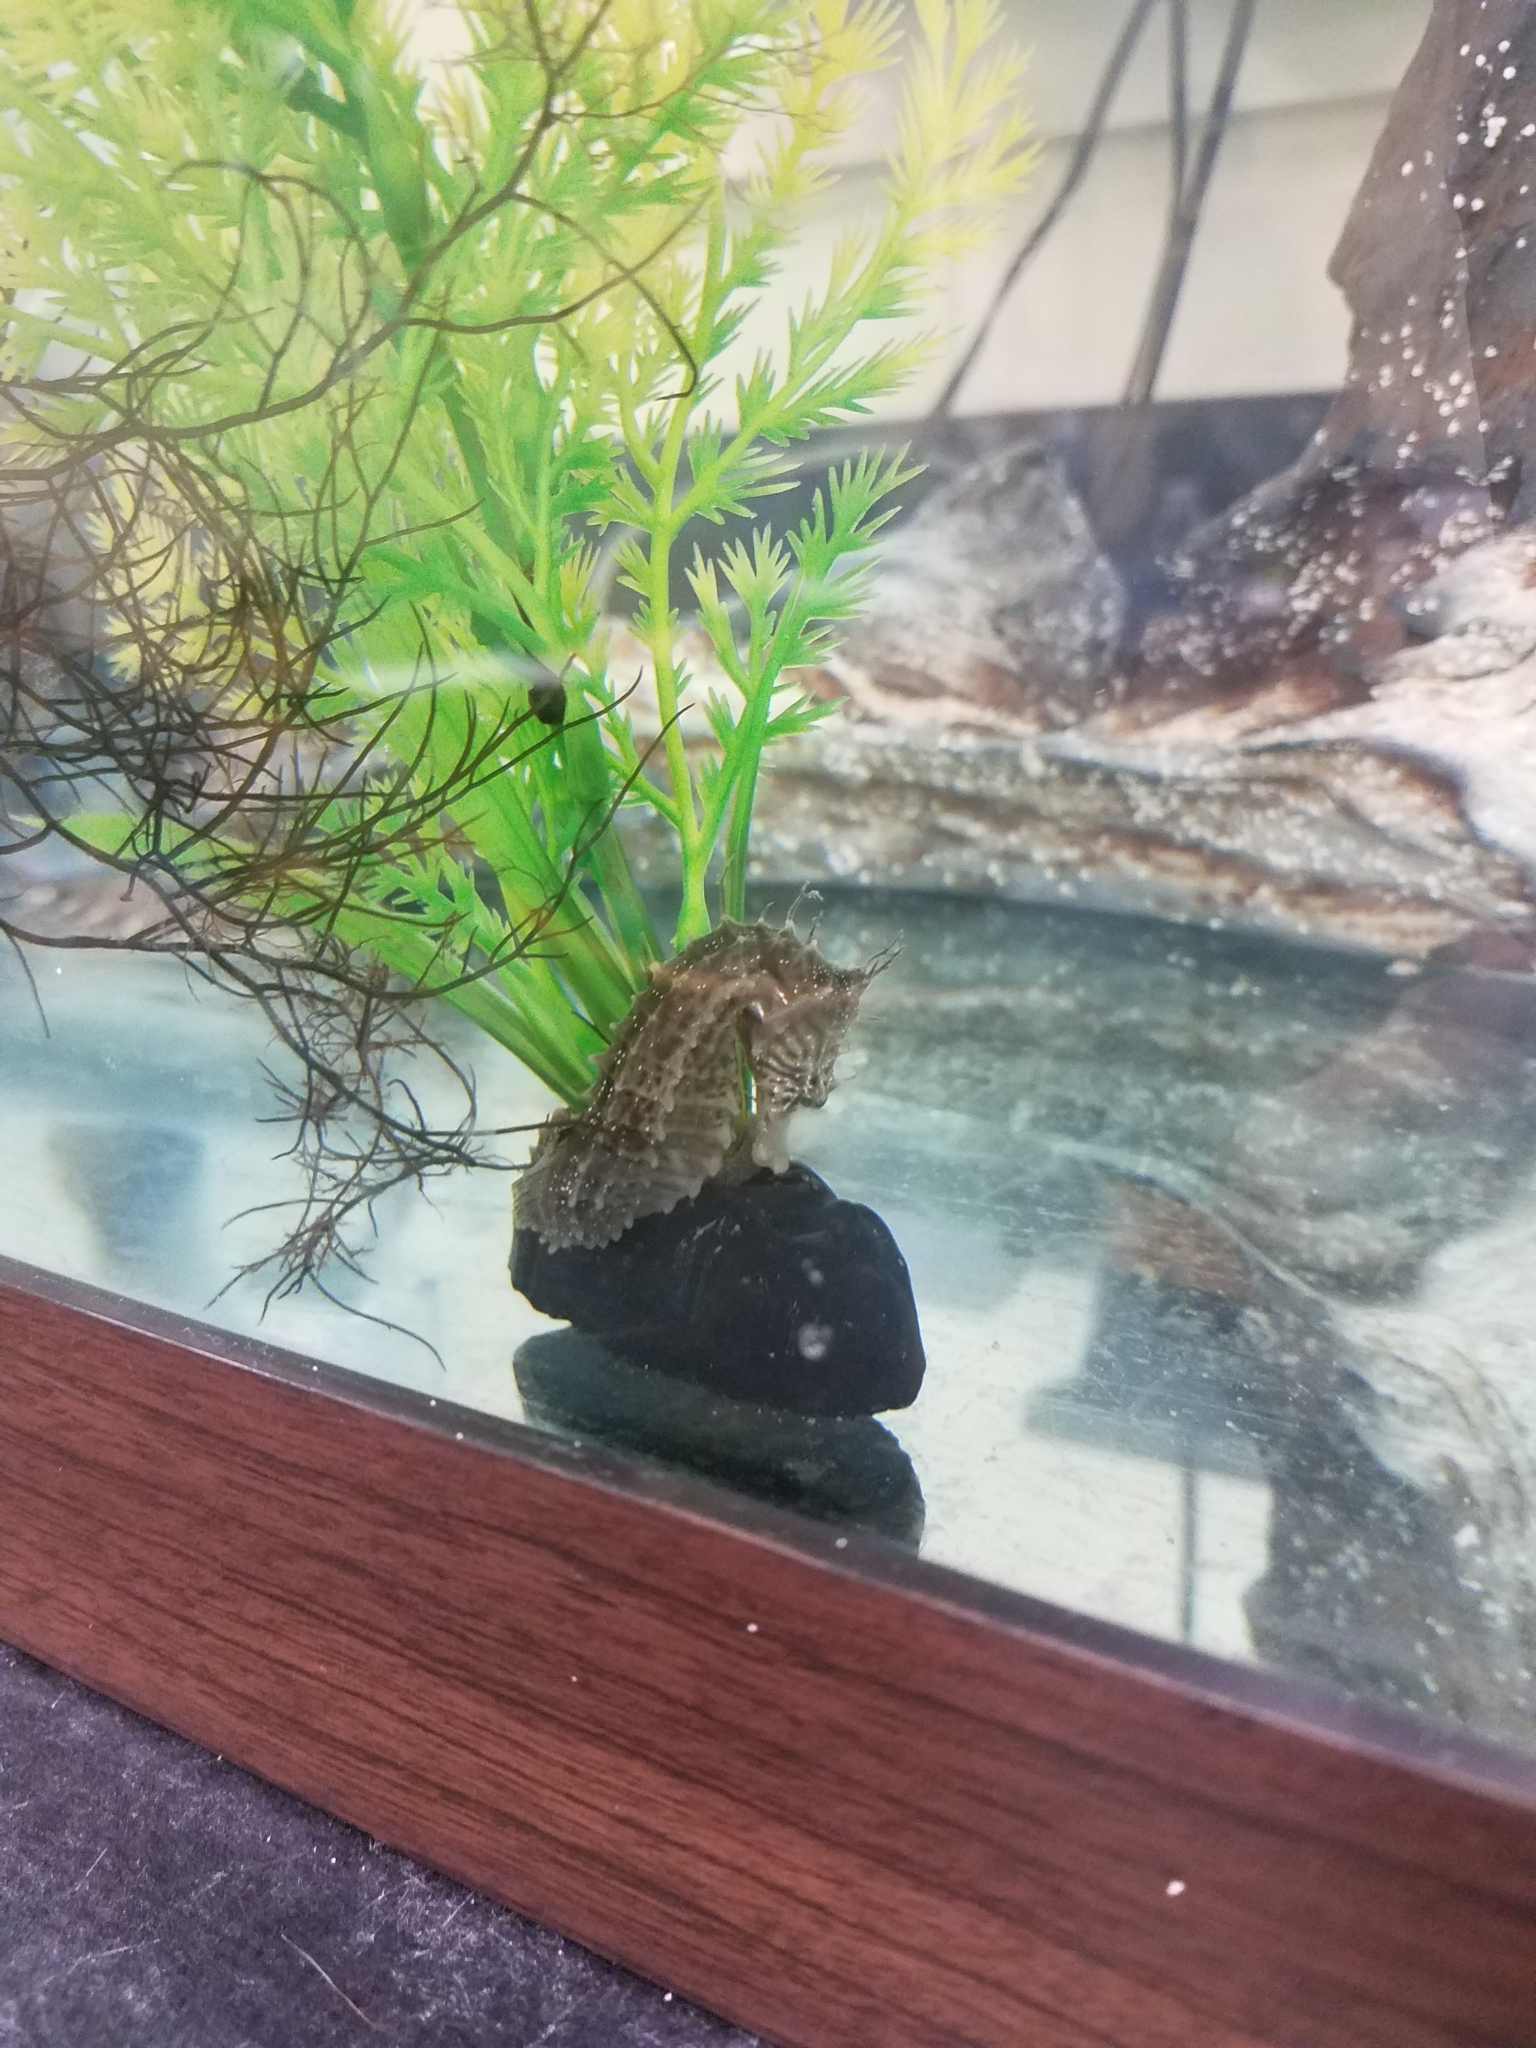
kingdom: Animalia
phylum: Chordata
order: Syngnathiformes
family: Syngnathidae
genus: Hippocampus
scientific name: Hippocampus erectus
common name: Lined seahorse
